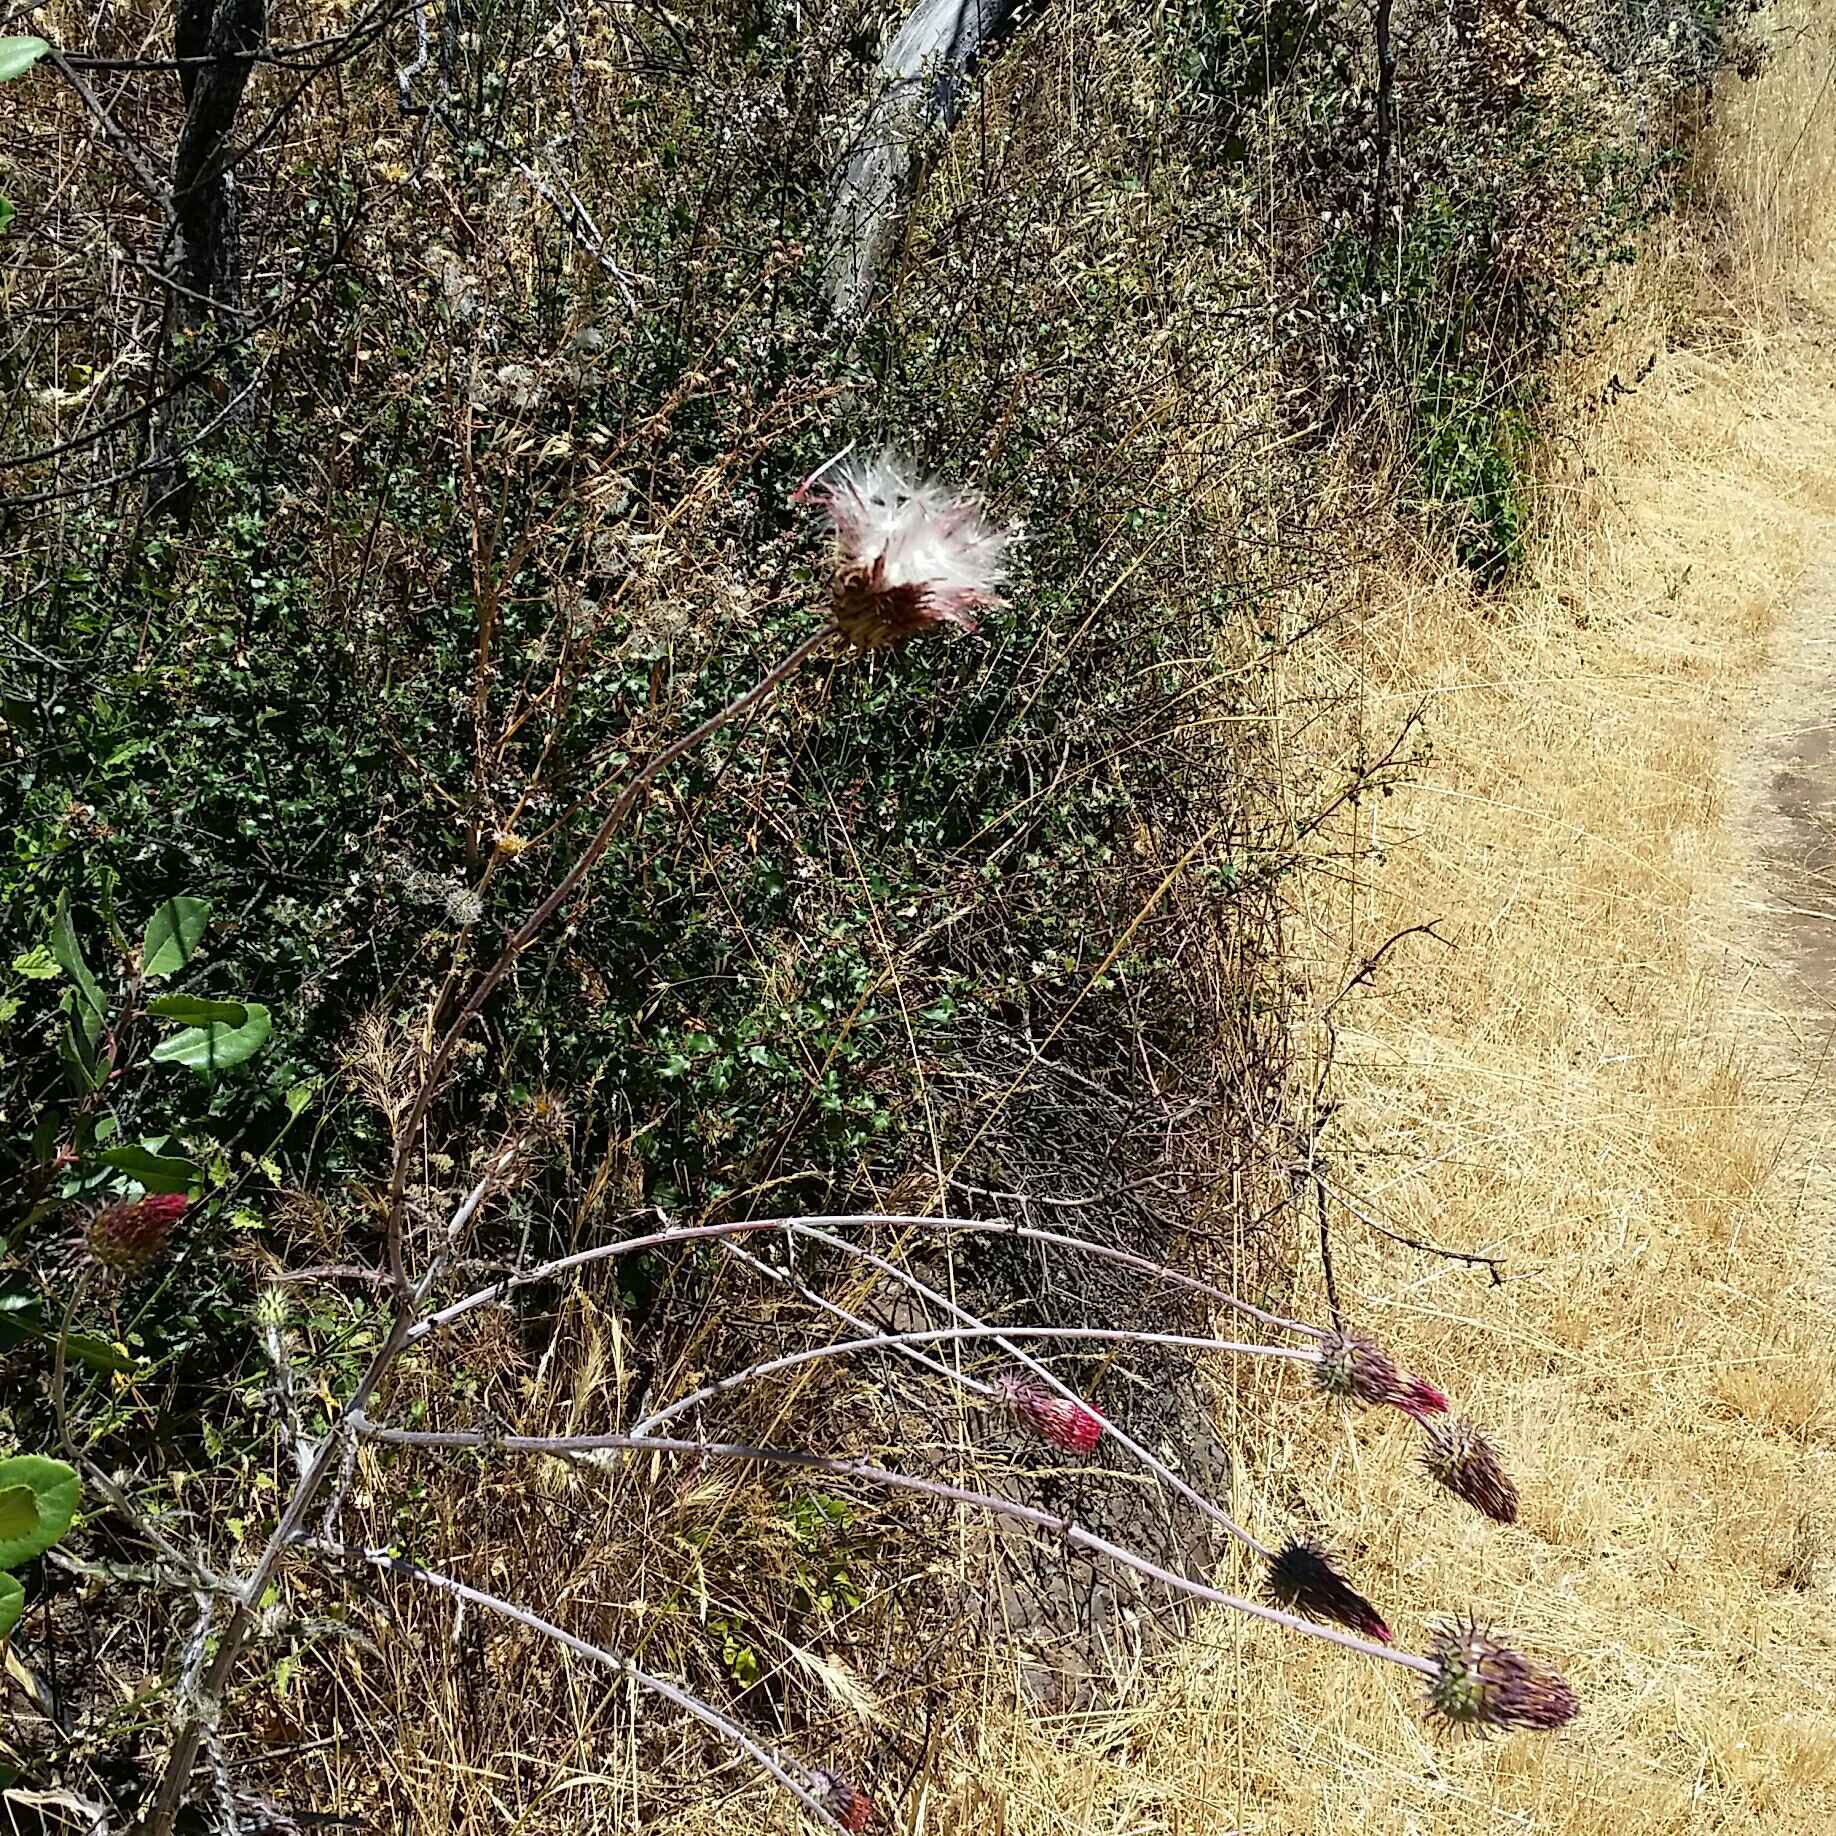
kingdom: Plantae
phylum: Tracheophyta
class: Magnoliopsida
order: Asterales
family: Asteraceae
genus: Cirsium
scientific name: Cirsium occidentale
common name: Western thistle
